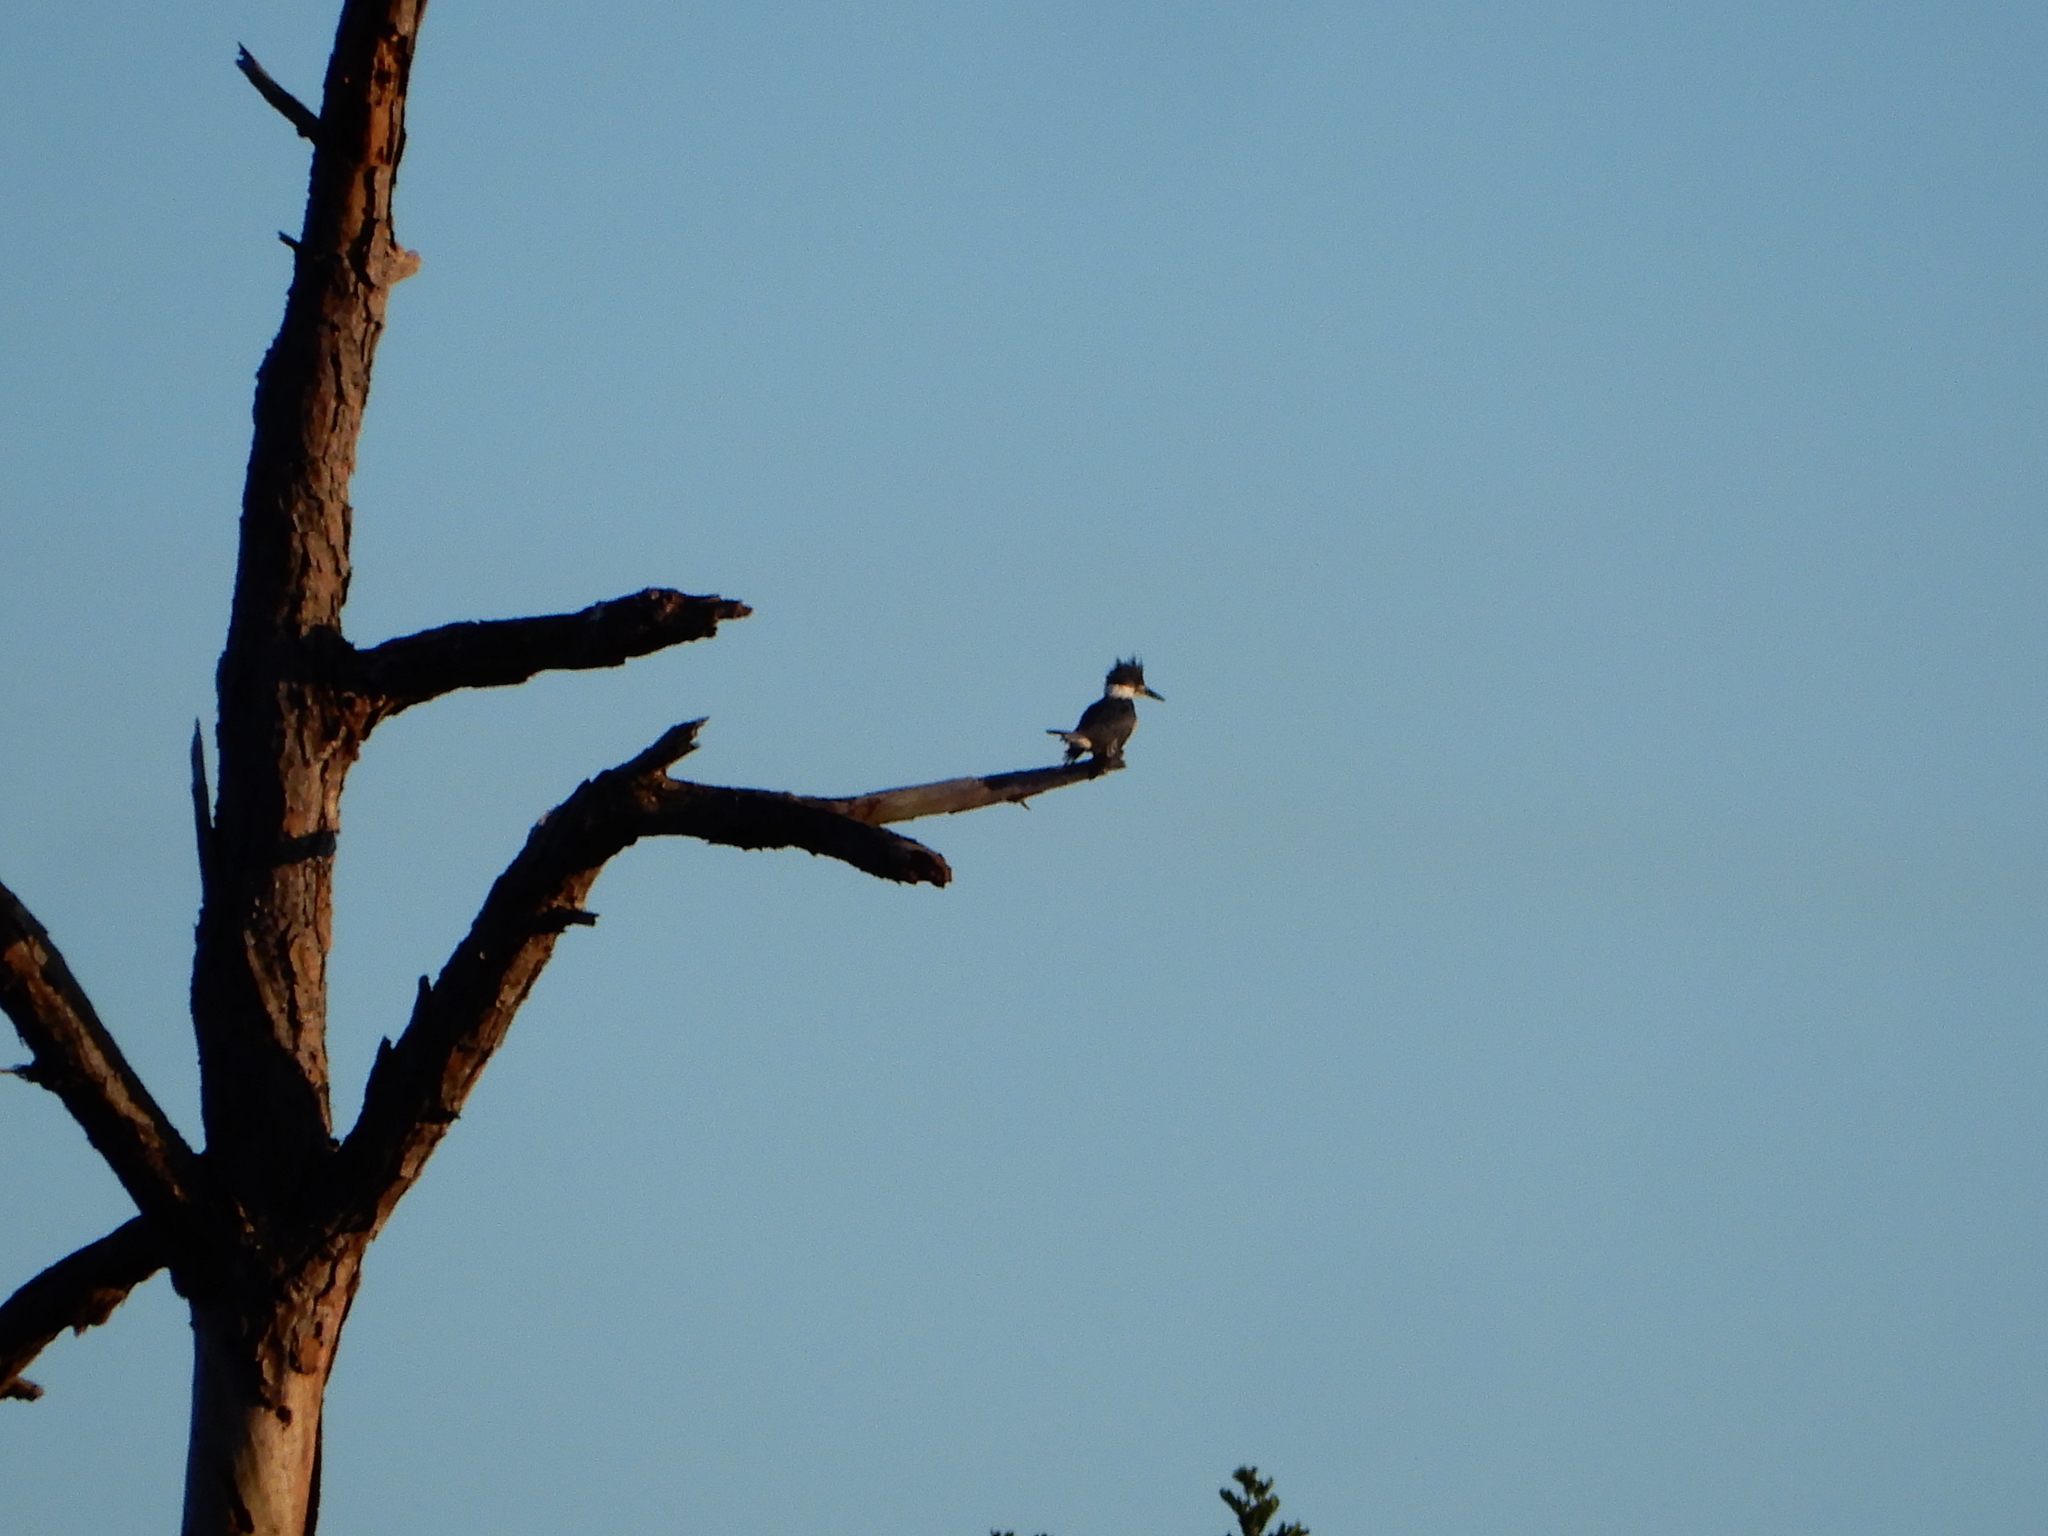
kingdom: Animalia
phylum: Chordata
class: Aves
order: Coraciiformes
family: Alcedinidae
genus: Megaceryle
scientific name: Megaceryle alcyon
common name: Belted kingfisher
